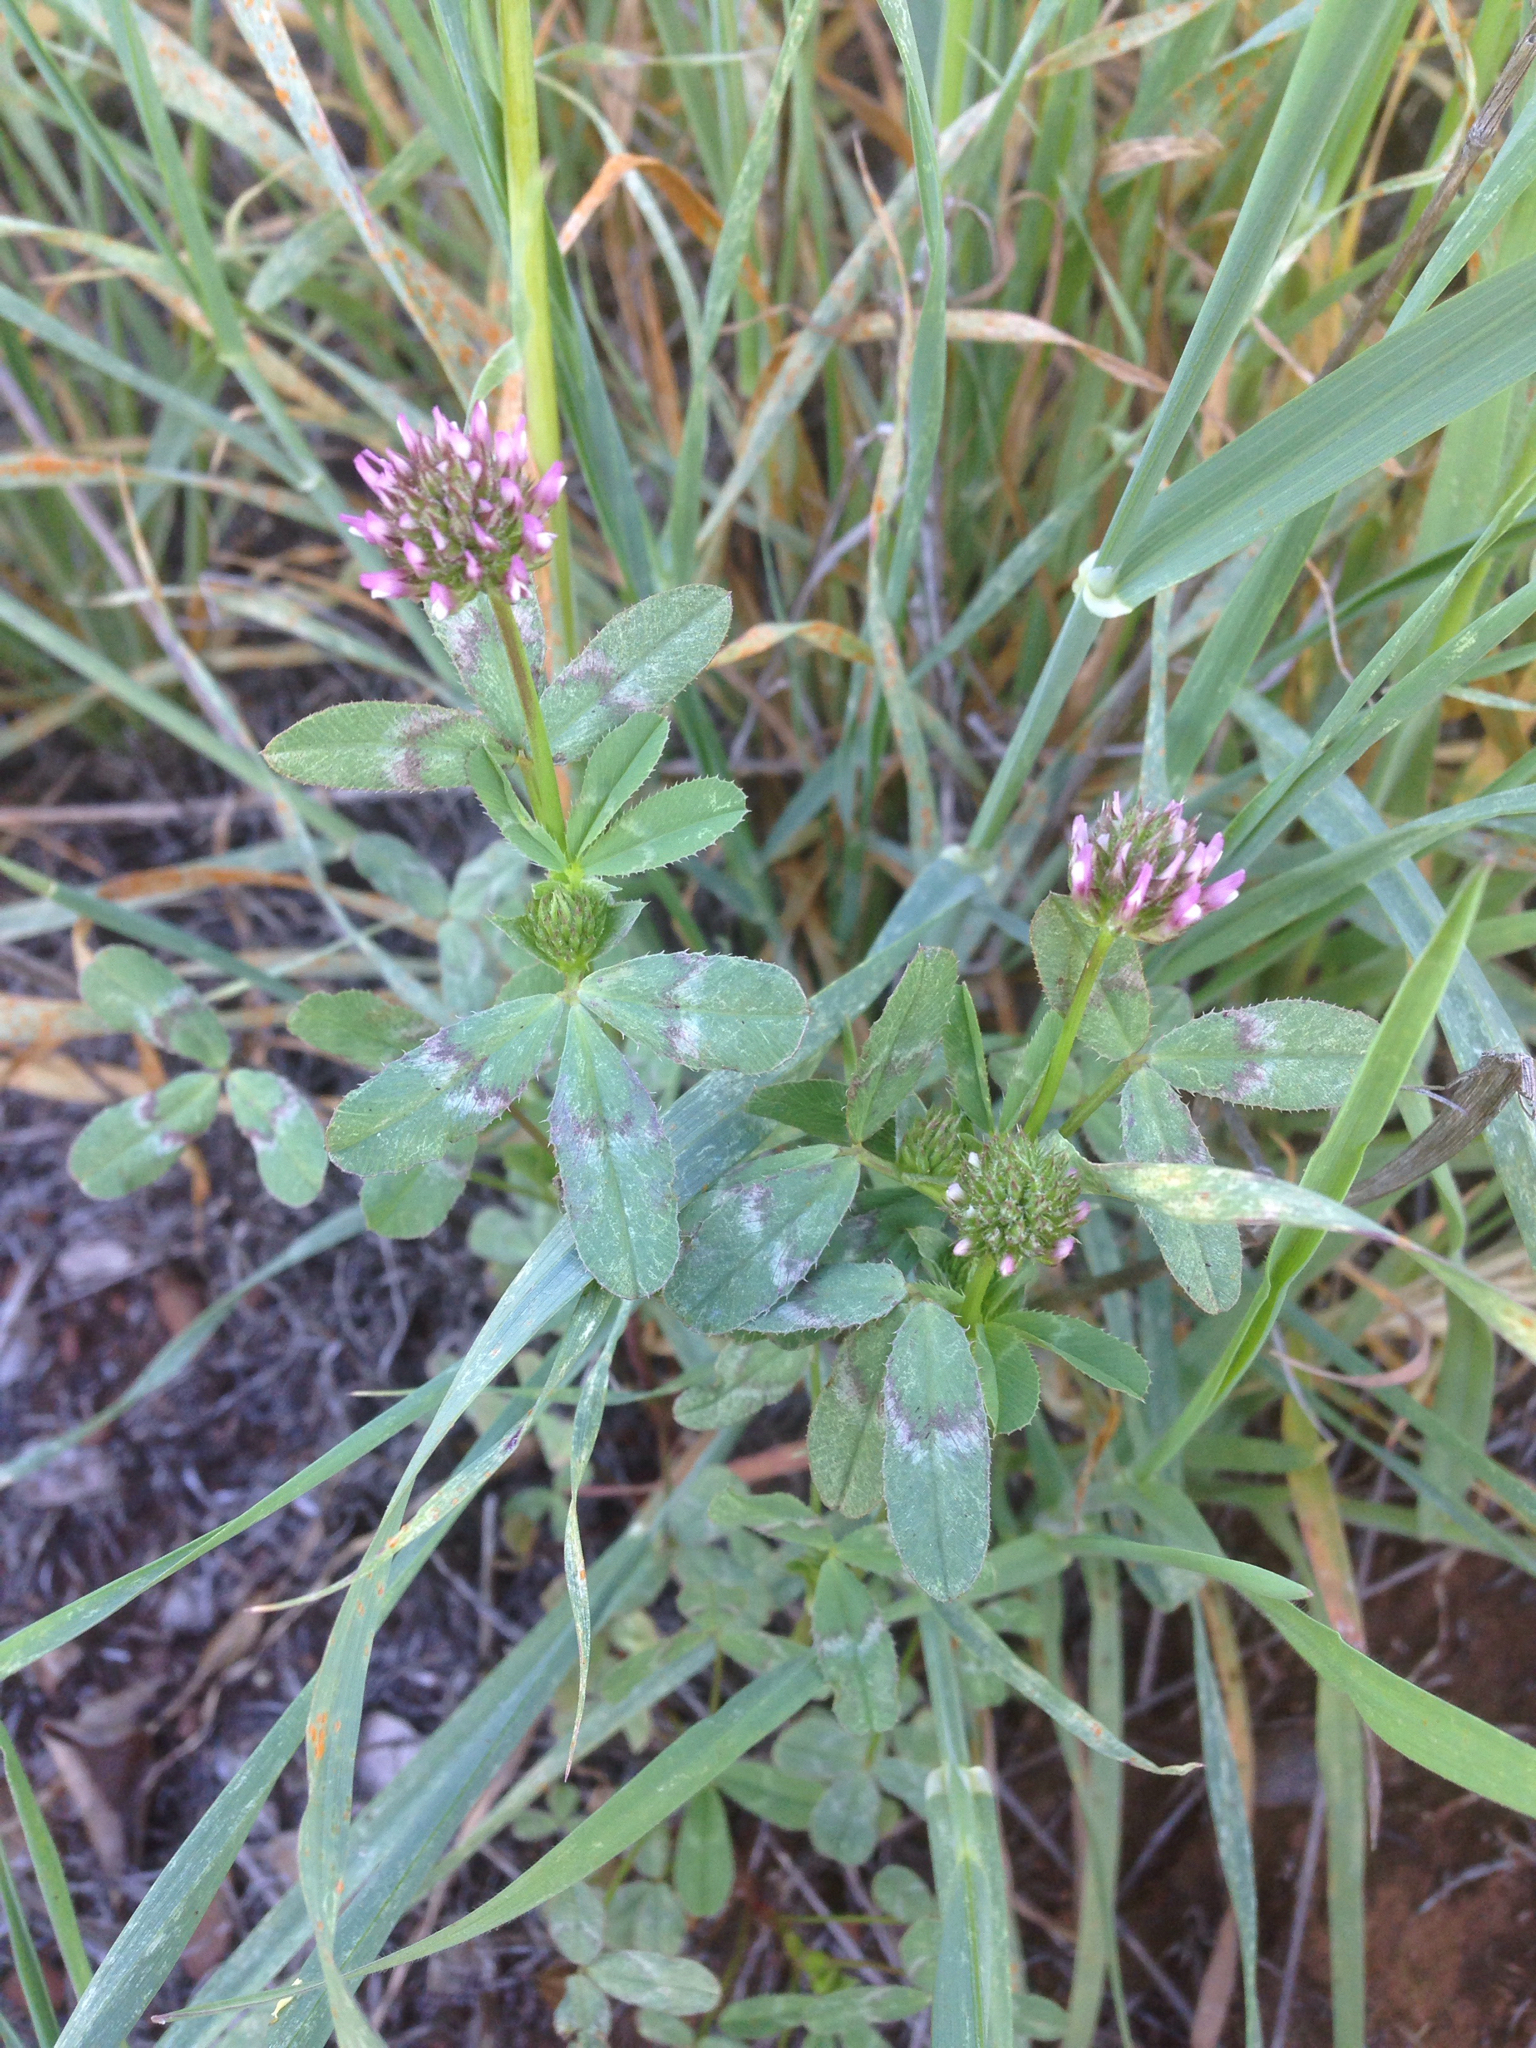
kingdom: Plantae
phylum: Tracheophyta
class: Magnoliopsida
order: Fabales
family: Fabaceae
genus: Trifolium
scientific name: Trifolium ciliolatum
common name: Foothill clover
